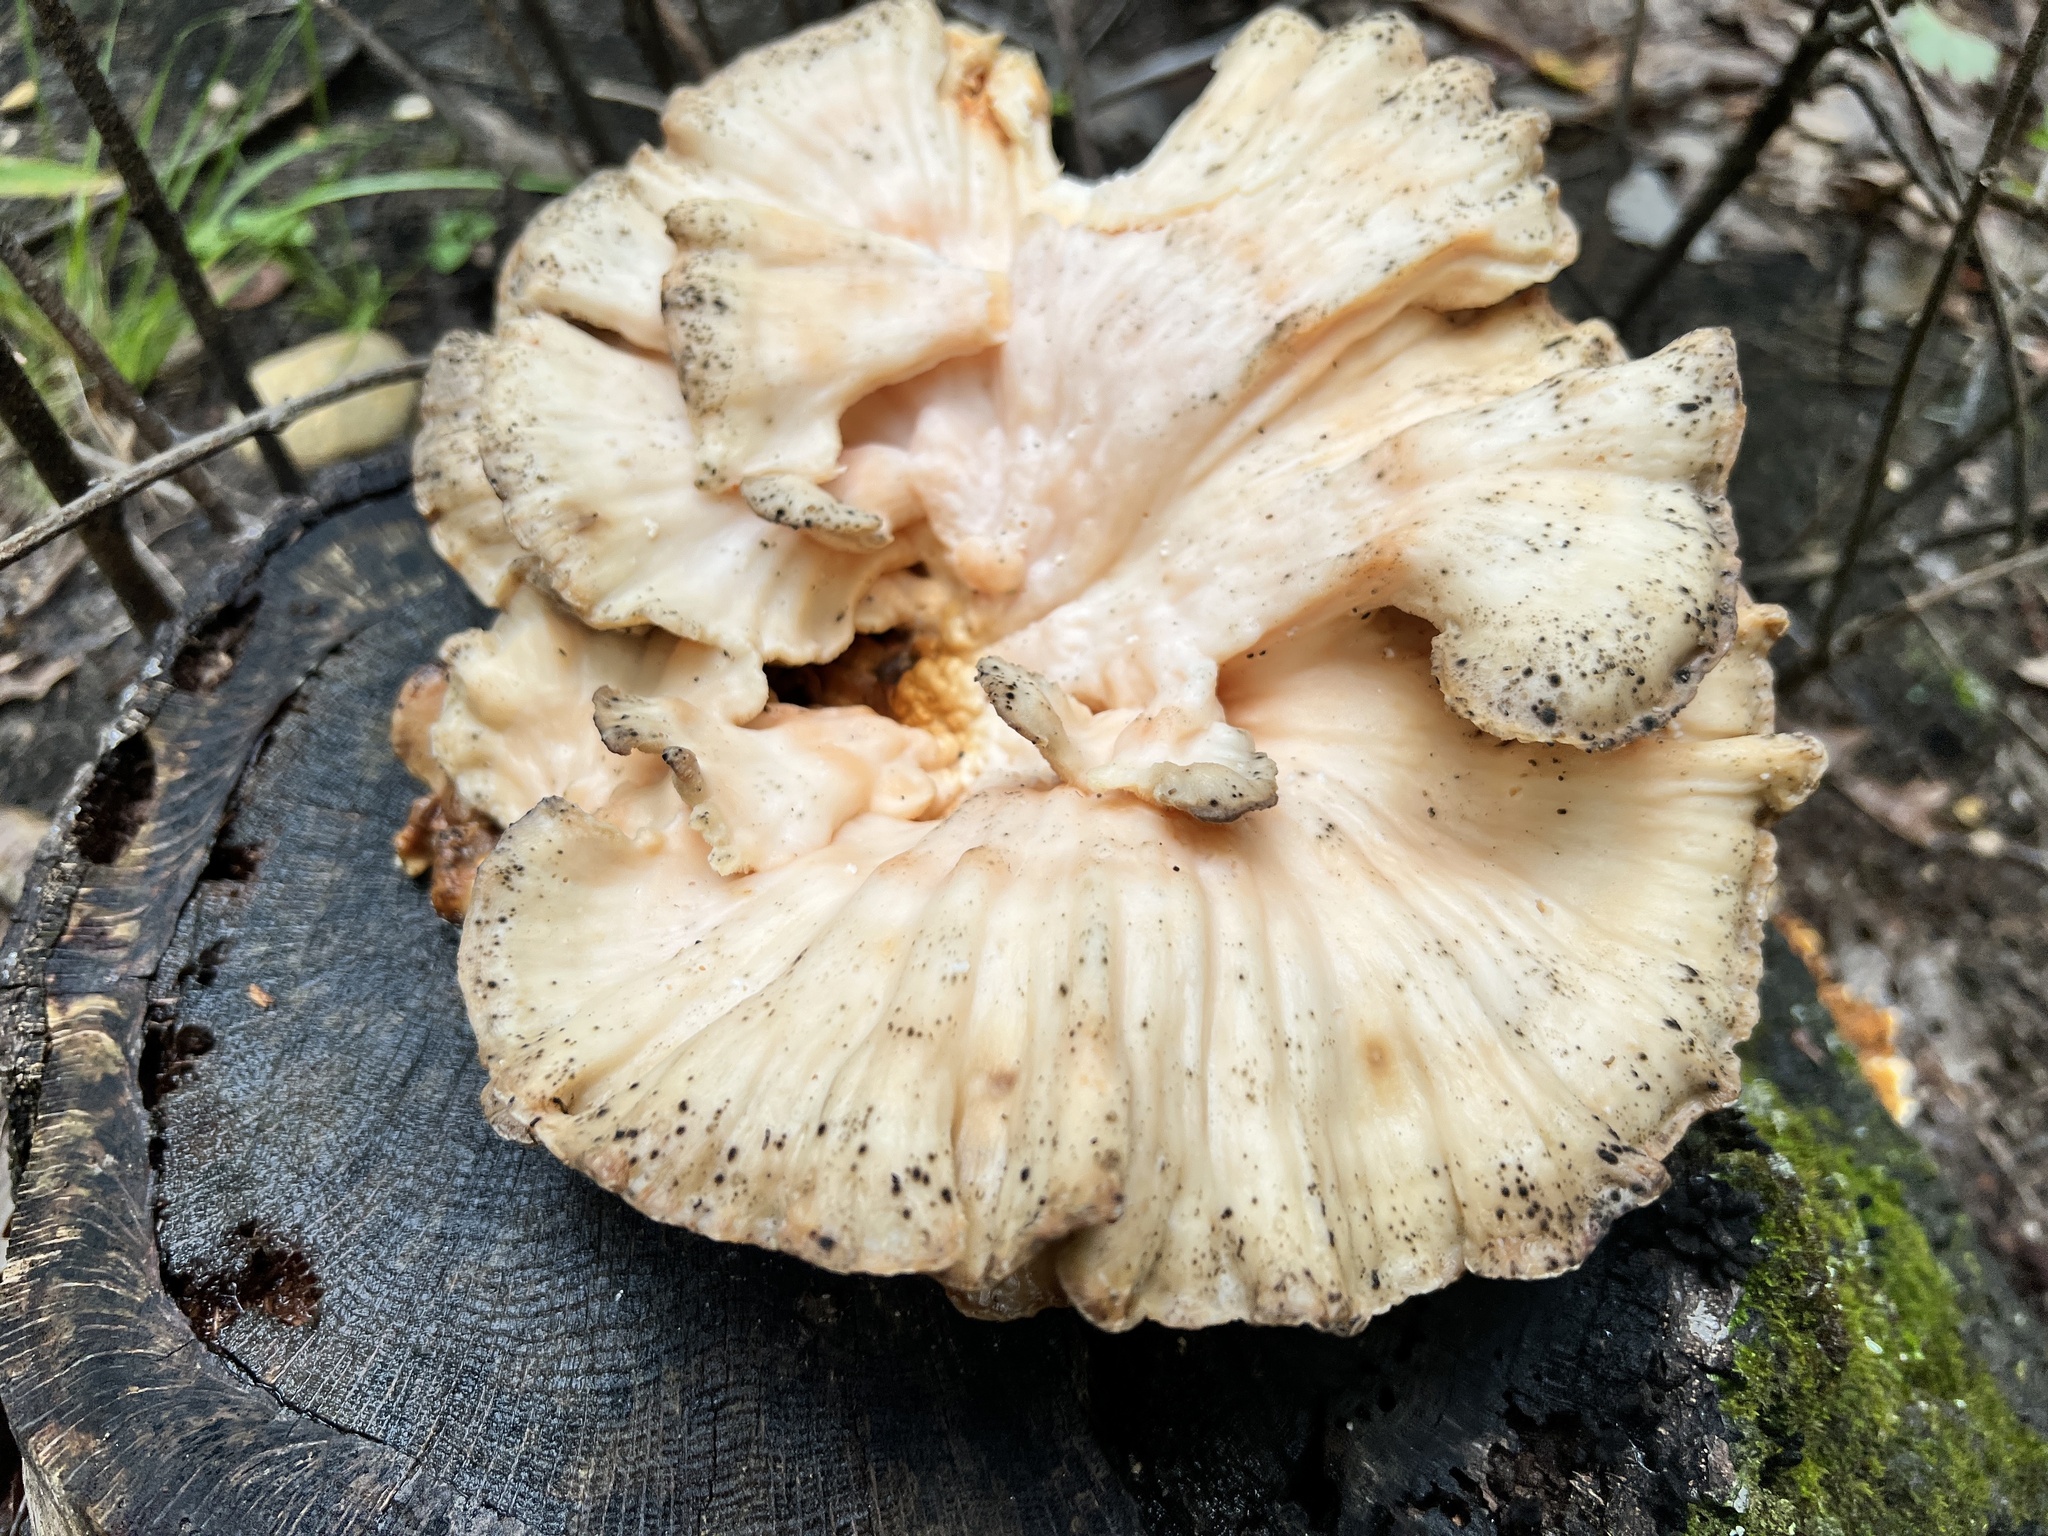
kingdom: Fungi
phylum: Basidiomycota
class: Agaricomycetes
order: Polyporales
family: Laetiporaceae
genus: Laetiporus
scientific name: Laetiporus sulphureus
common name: Chicken of the woods
